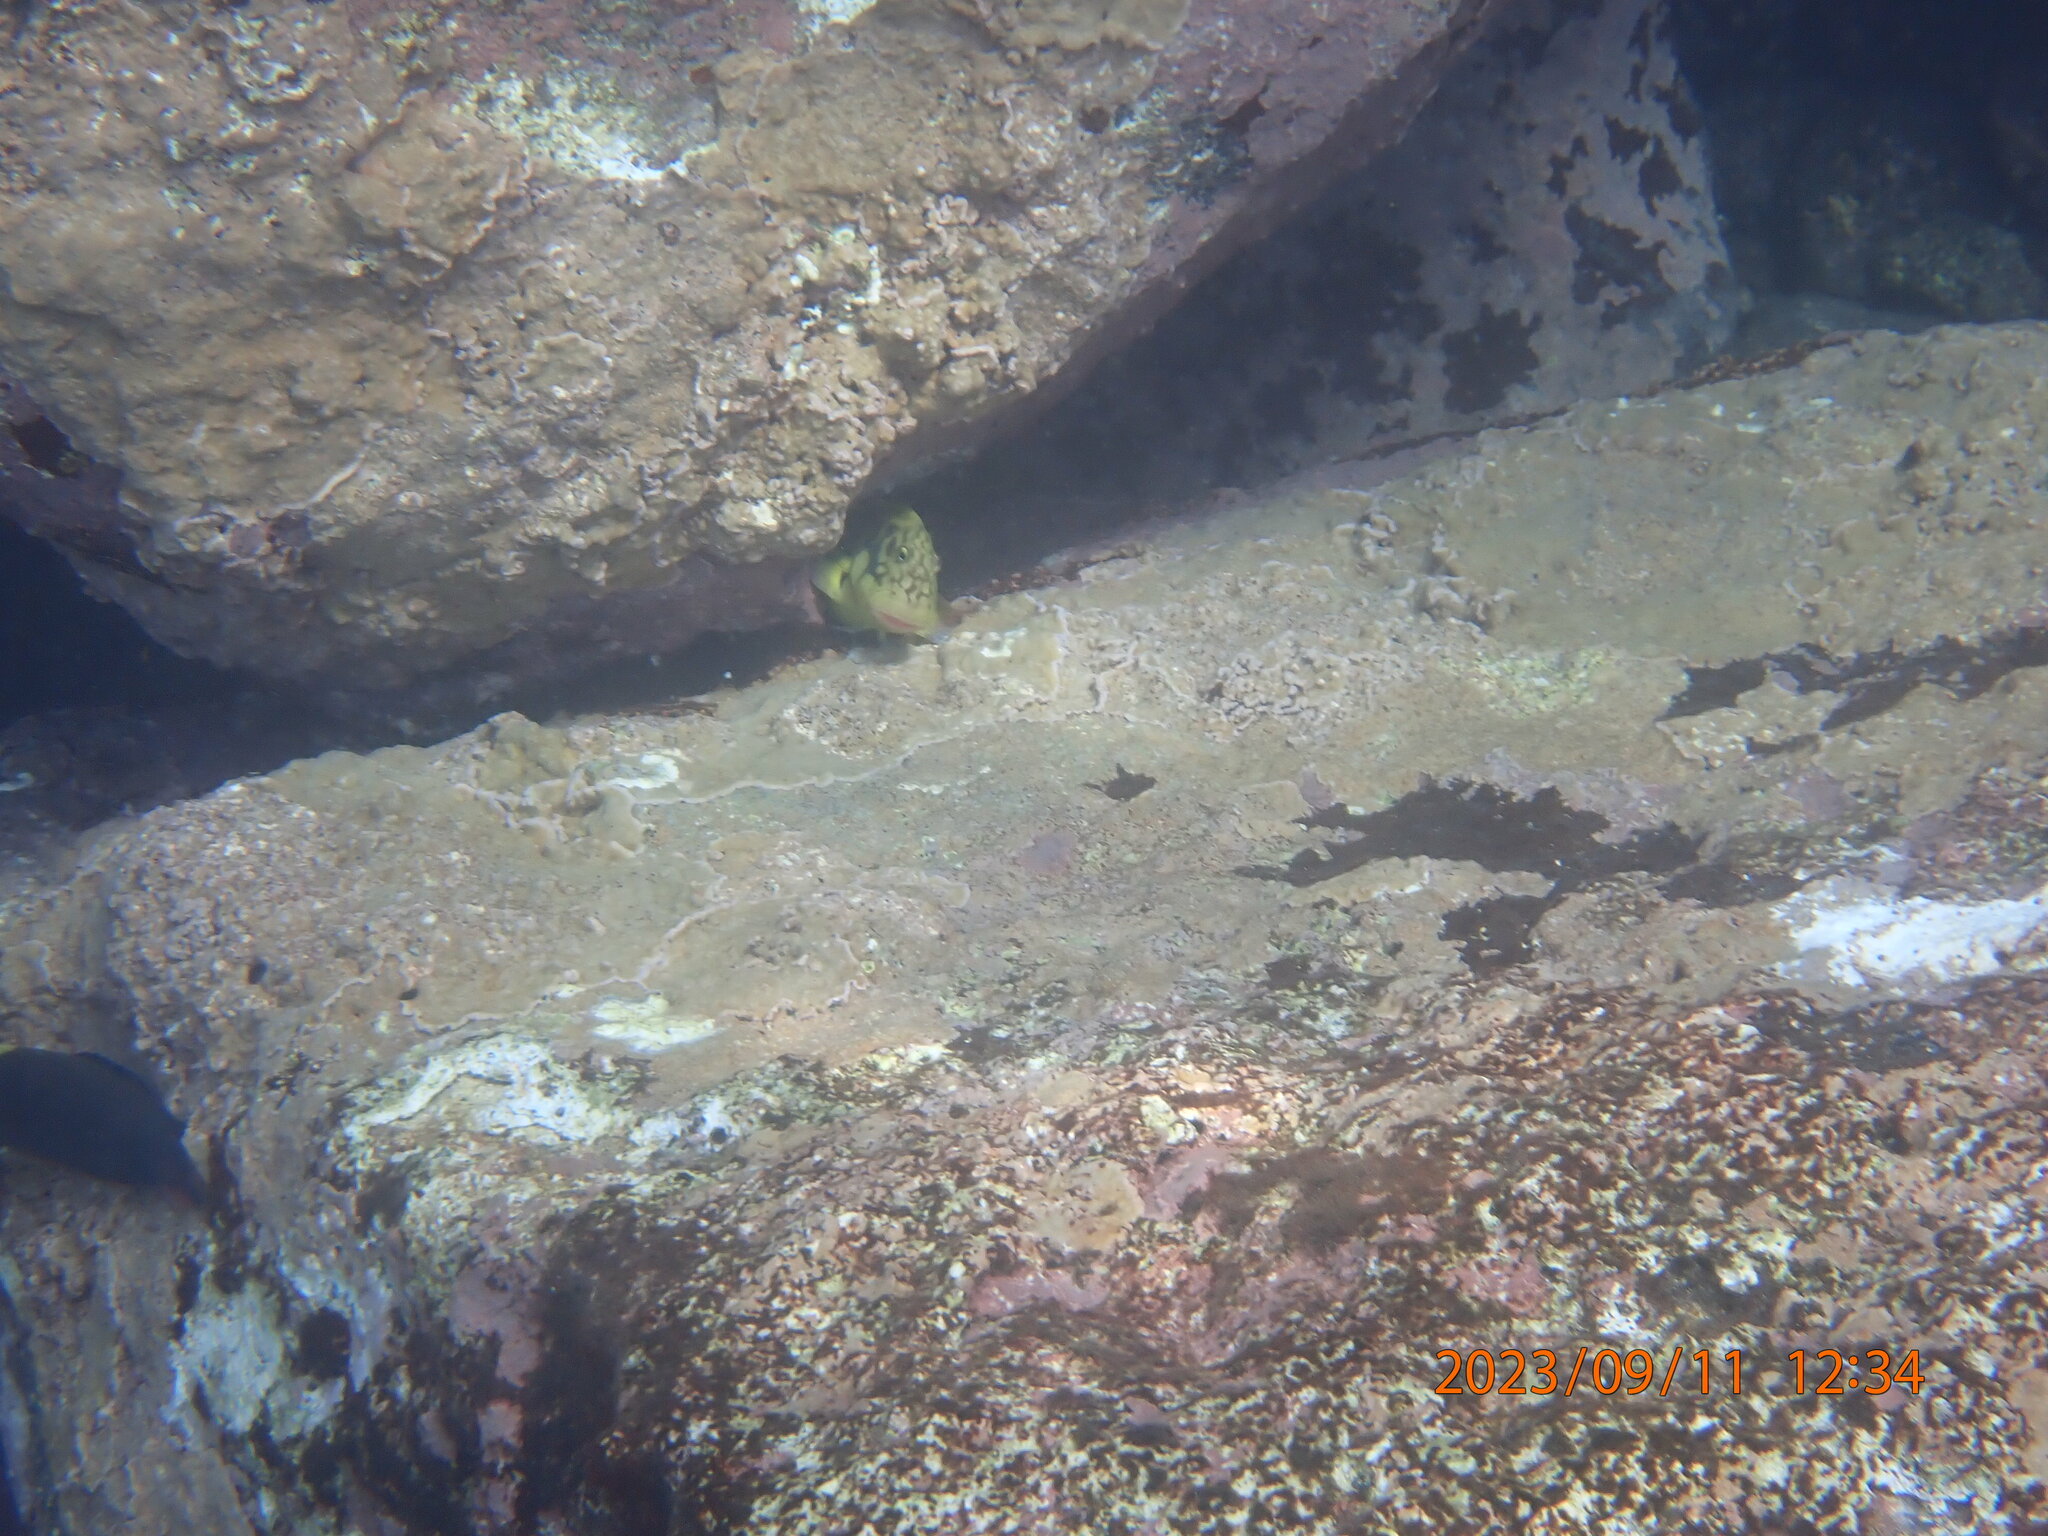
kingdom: Animalia
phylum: Chordata
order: Perciformes
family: Blenniidae
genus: Ophioblennius
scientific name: Ophioblennius atlanticus
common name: Redlip blenny
